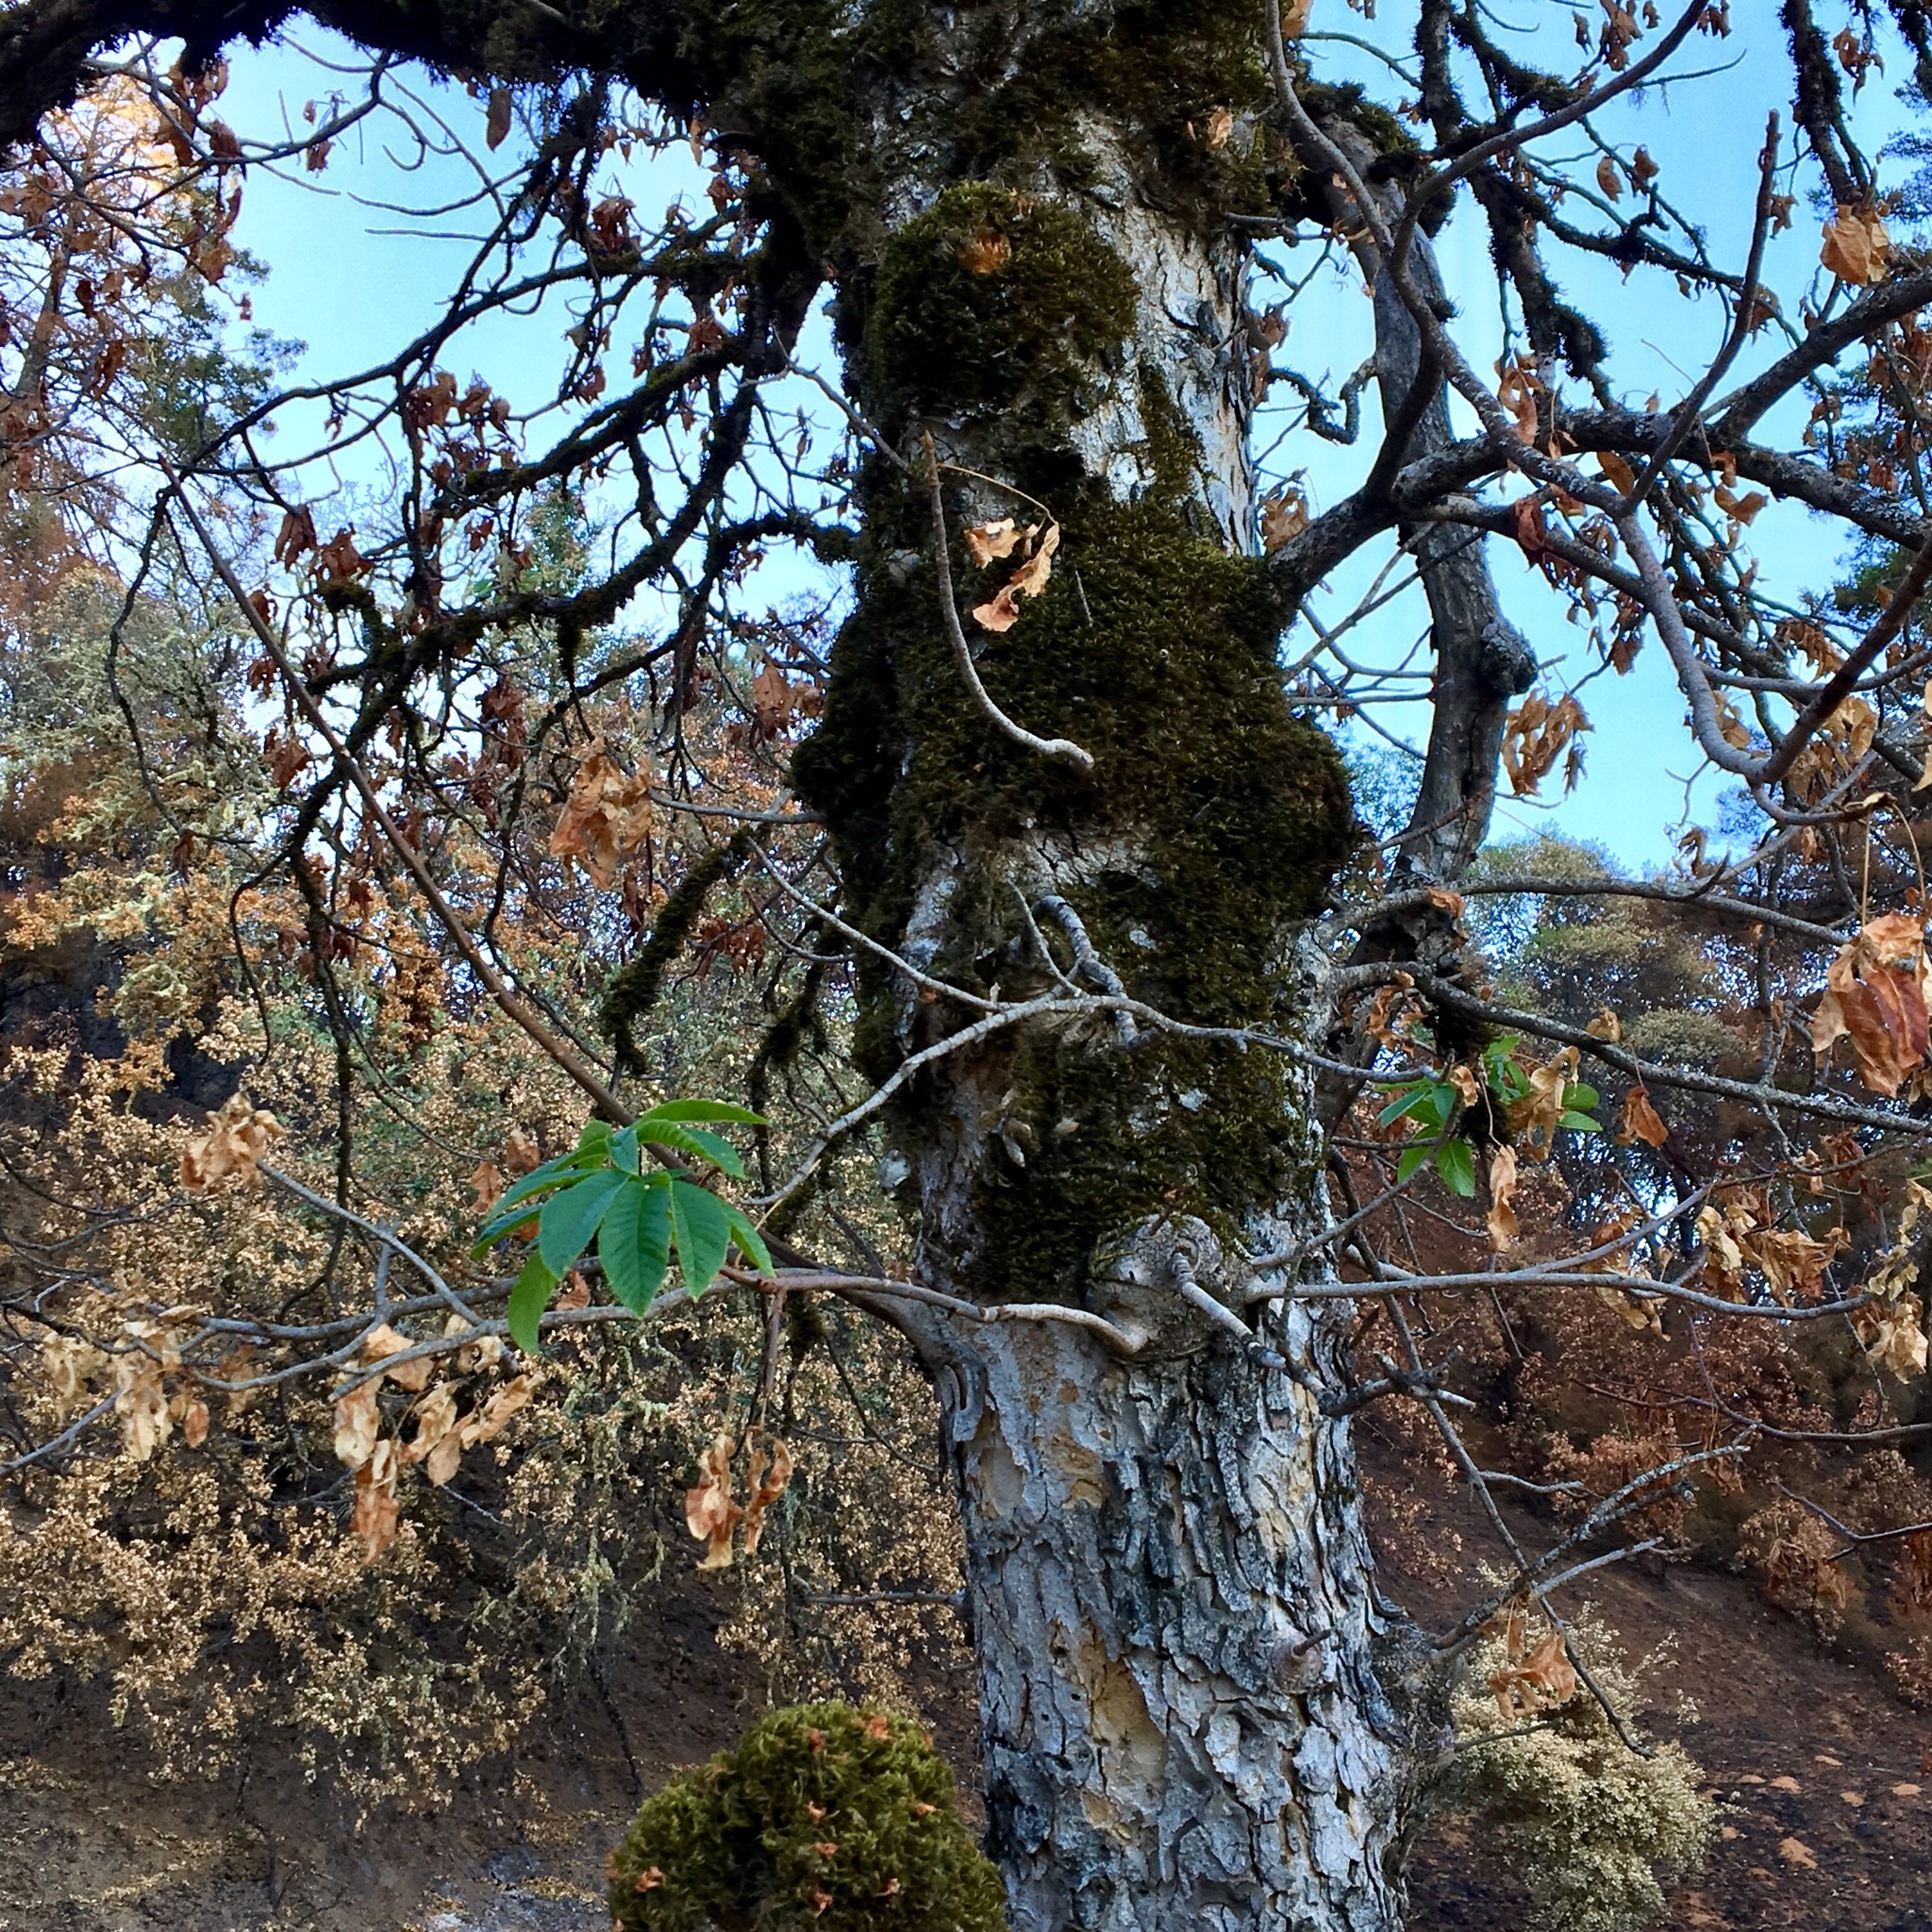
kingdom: Plantae
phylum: Tracheophyta
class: Magnoliopsida
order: Sapindales
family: Sapindaceae
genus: Aesculus
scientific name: Aesculus californica
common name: California buckeye
